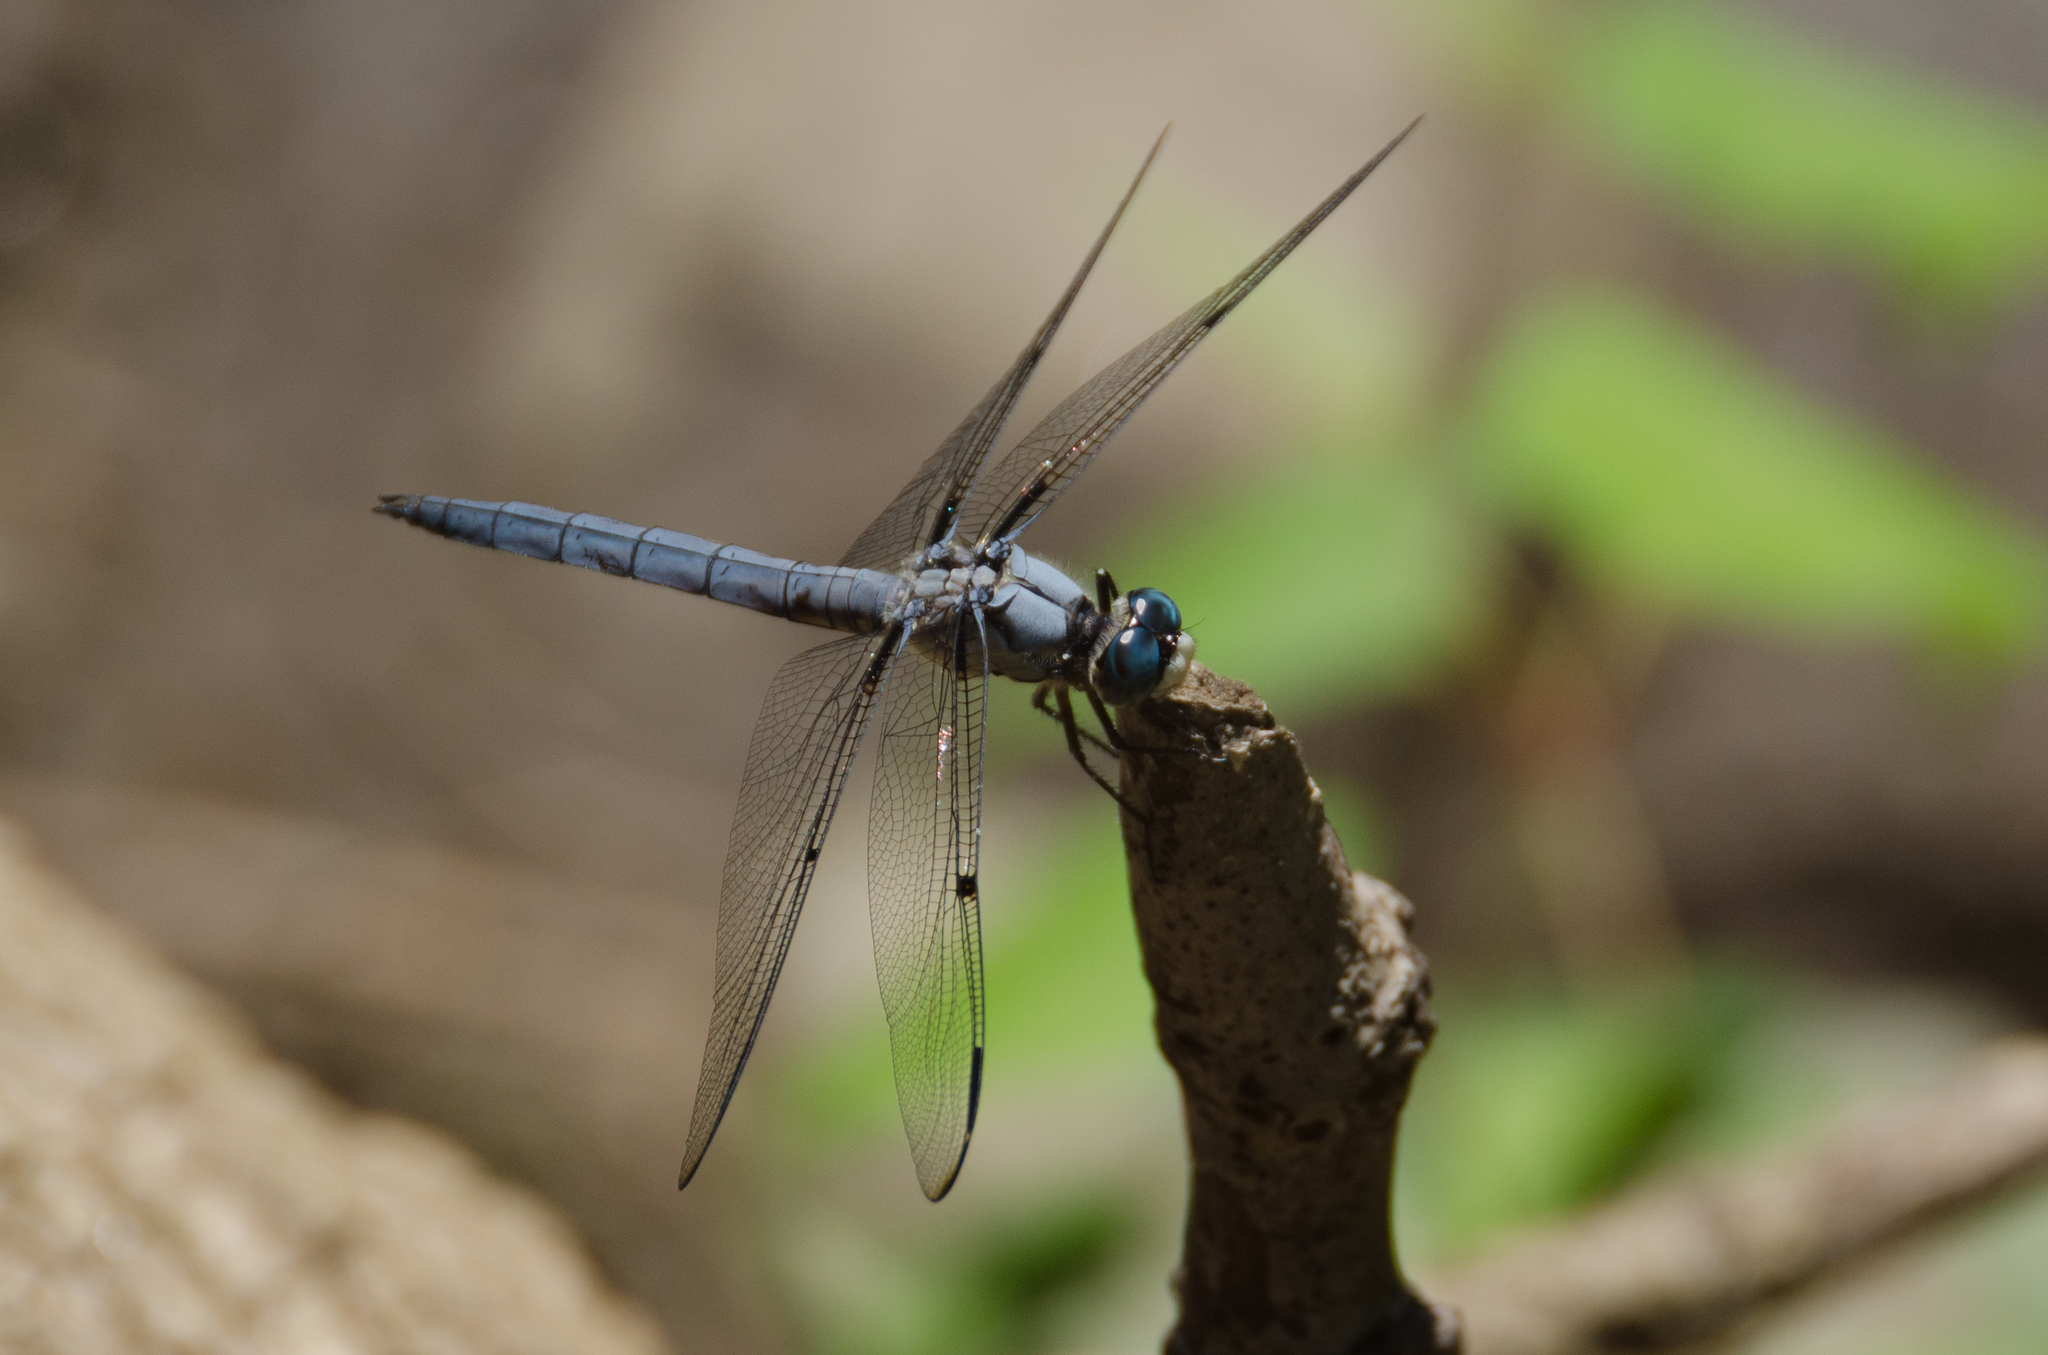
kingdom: Animalia
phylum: Arthropoda
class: Insecta
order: Odonata
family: Libellulidae
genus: Libellula
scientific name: Libellula vibrans
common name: Great blue skimmer
